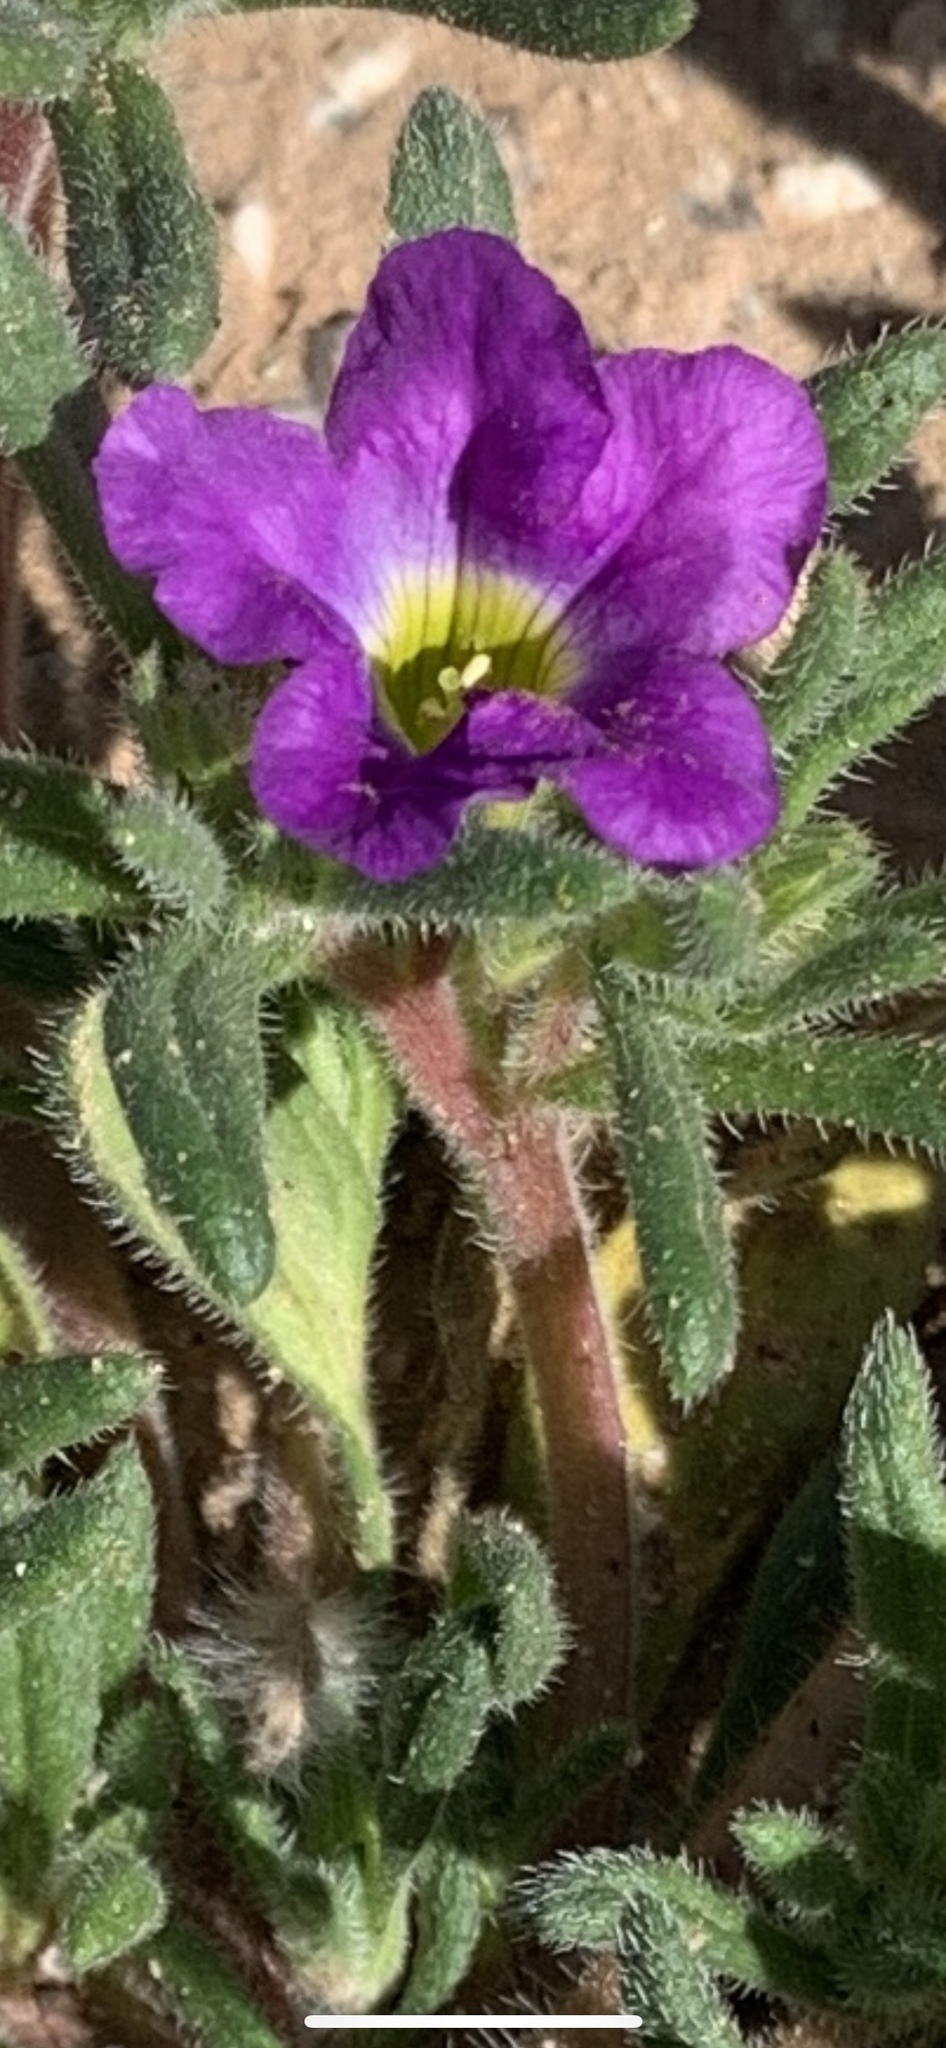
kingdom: Plantae
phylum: Tracheophyta
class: Magnoliopsida
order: Boraginales
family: Namaceae
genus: Nama
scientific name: Nama hispida
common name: Bristly nama
